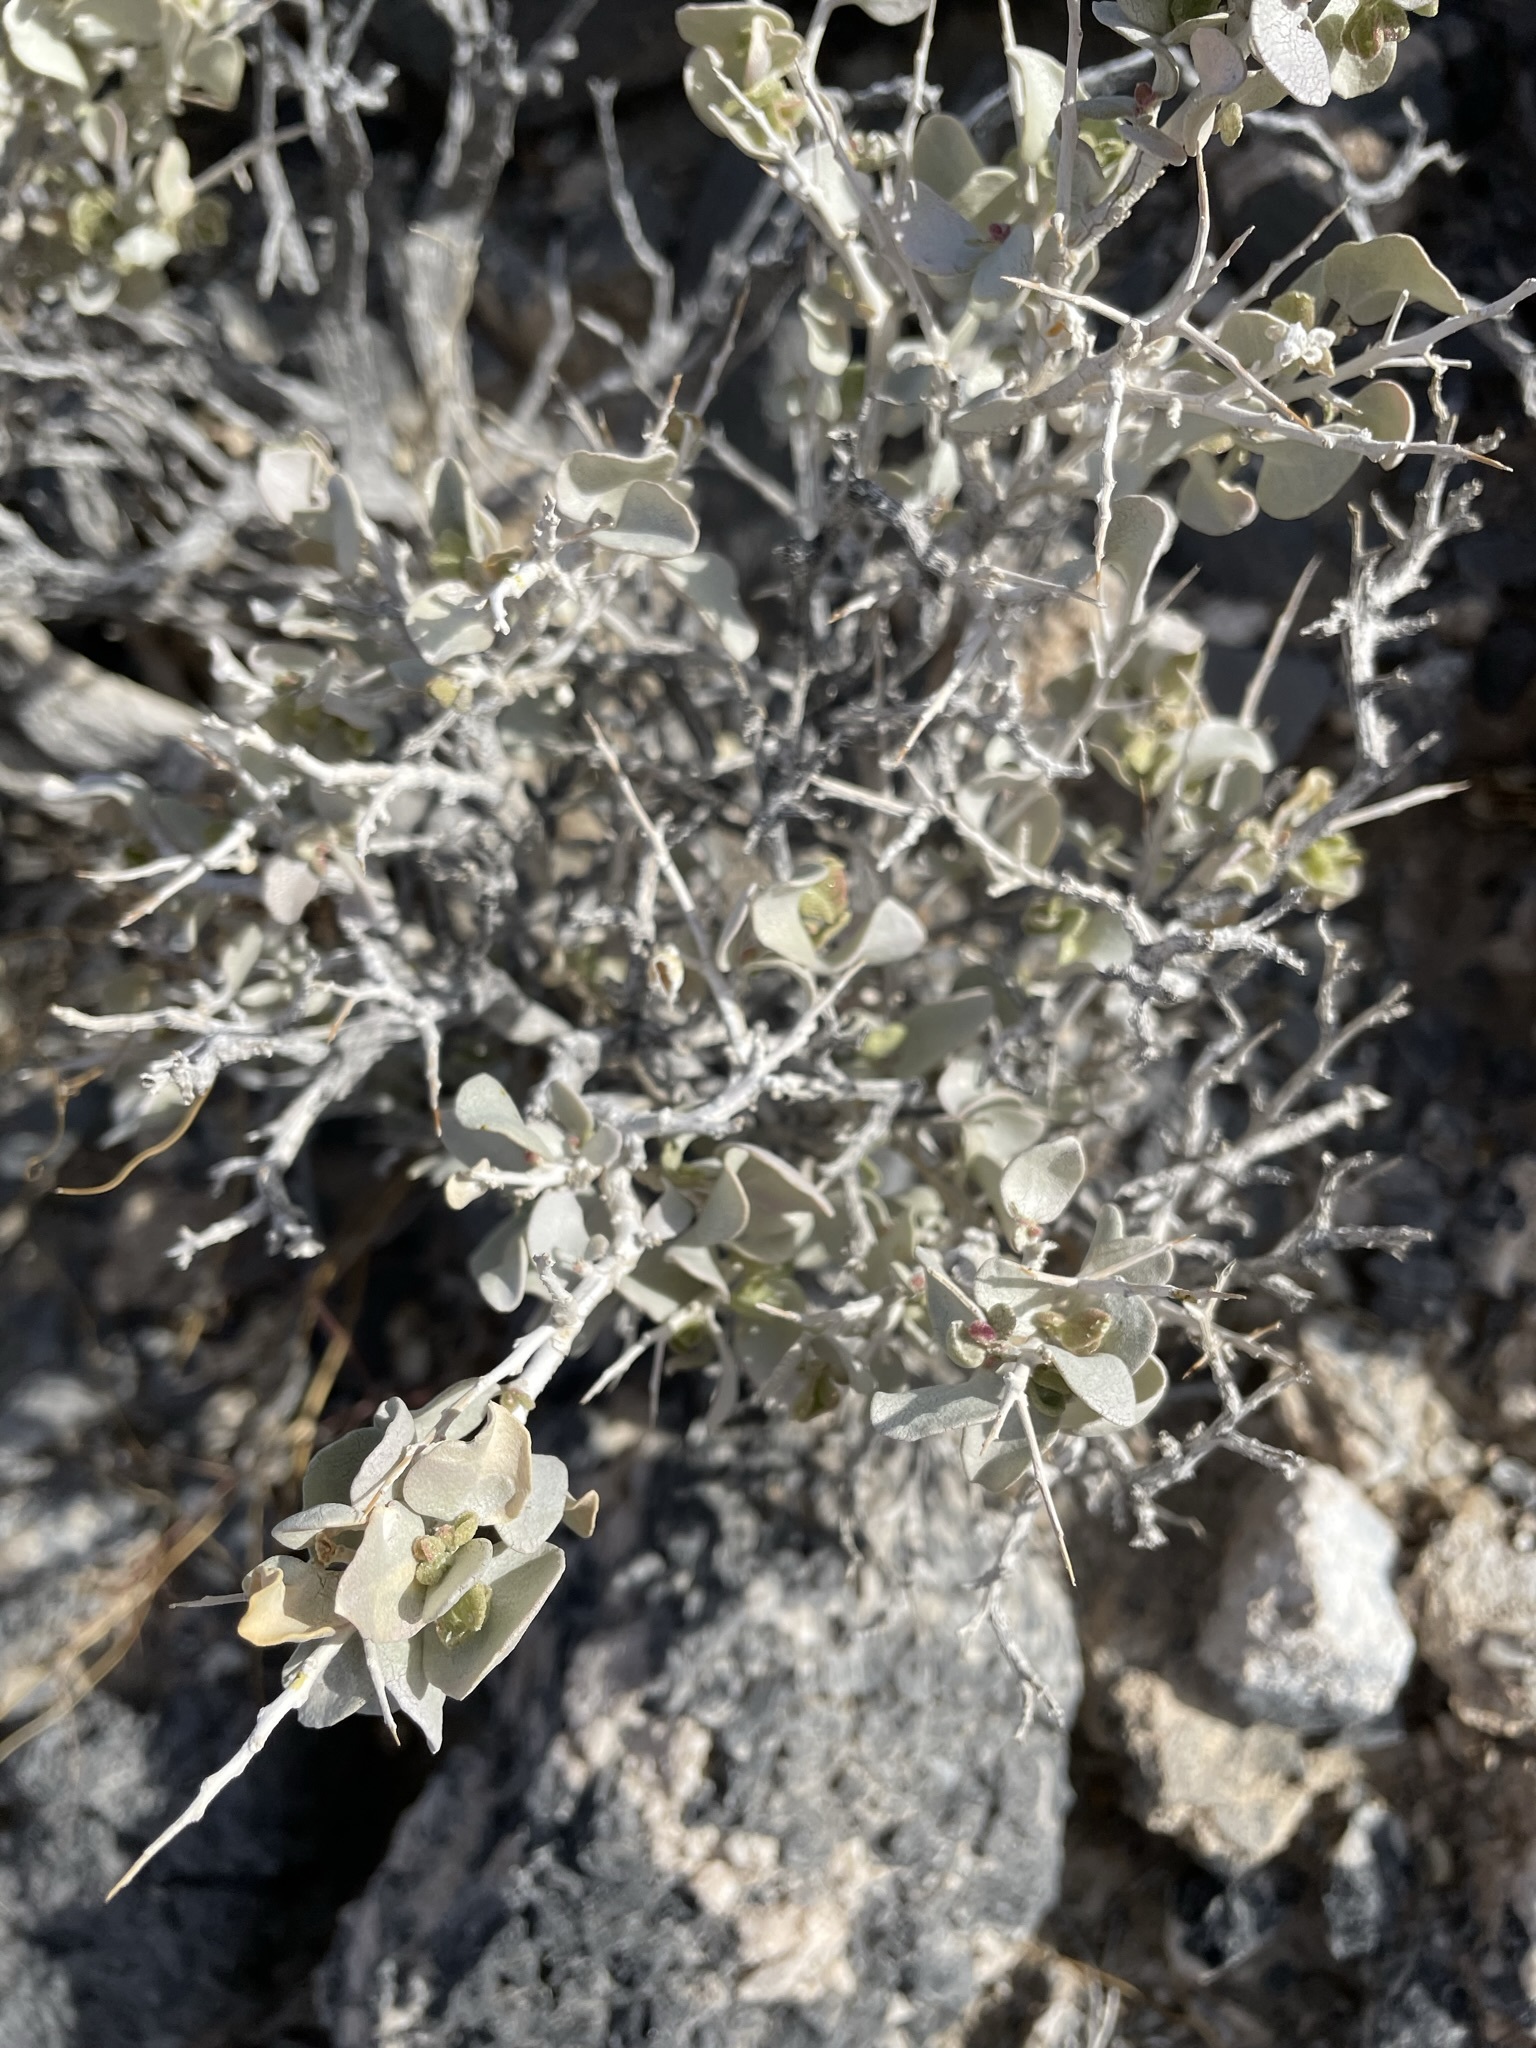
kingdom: Plantae
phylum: Tracheophyta
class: Magnoliopsida
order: Caryophyllales
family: Amaranthaceae
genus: Atriplex
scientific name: Atriplex confertifolia
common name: Shadscale
